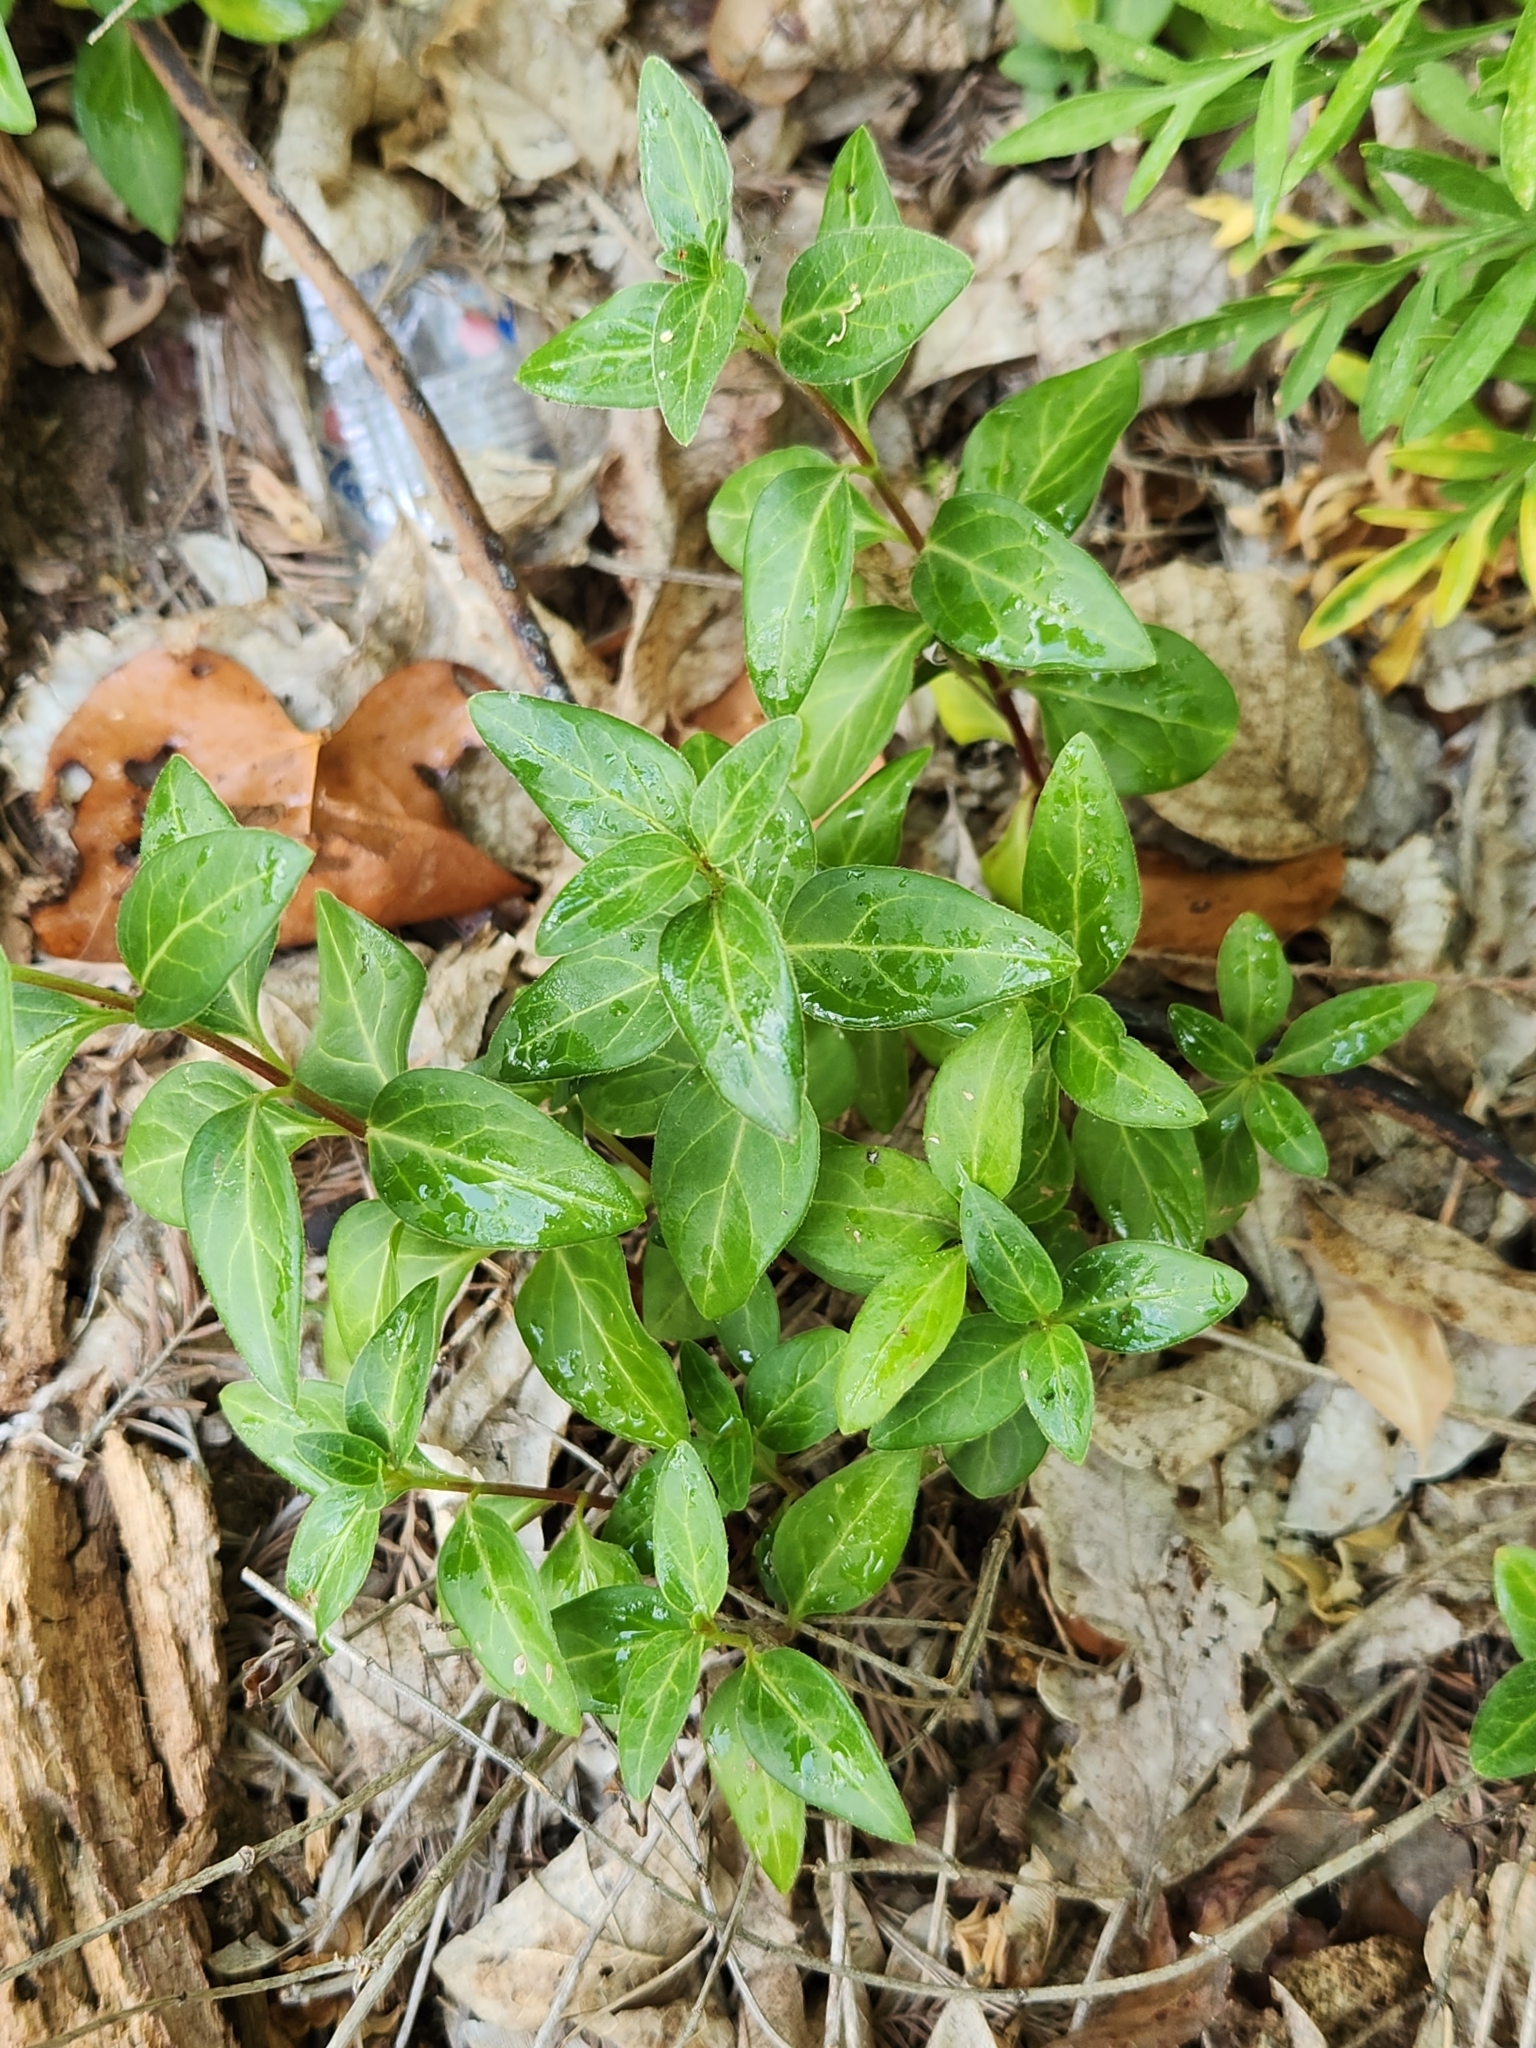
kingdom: Plantae
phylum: Tracheophyta
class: Magnoliopsida
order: Gentianales
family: Apocynaceae
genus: Vinca
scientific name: Vinca major
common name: Greater periwinkle
